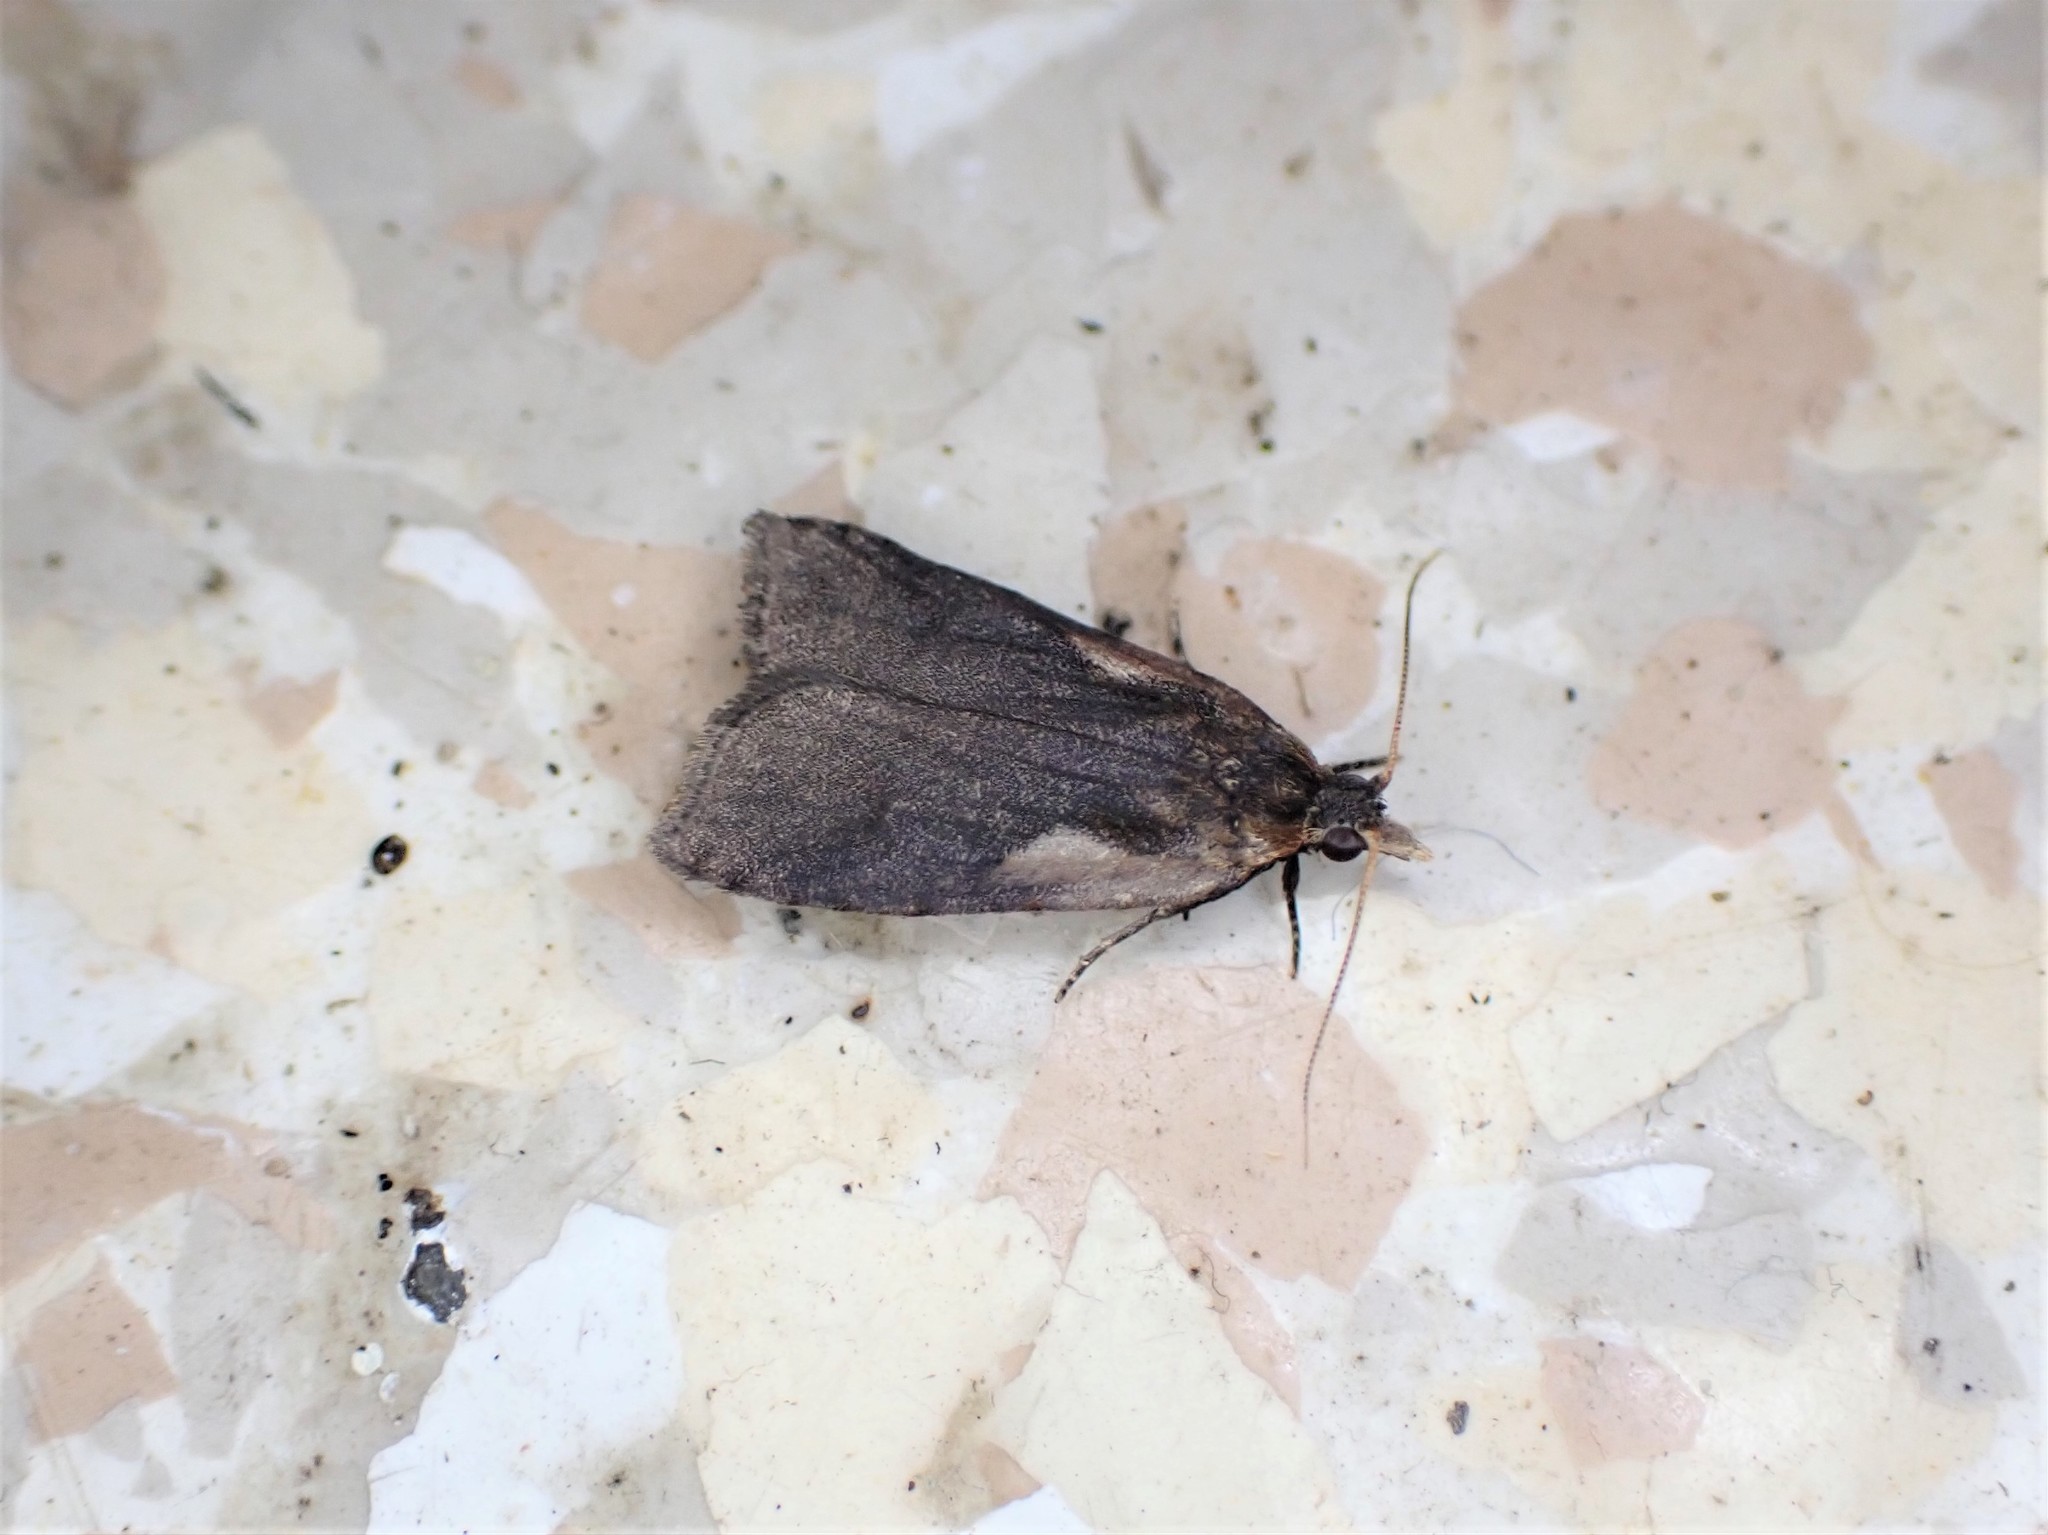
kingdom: Animalia
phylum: Arthropoda
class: Insecta
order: Lepidoptera
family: Tortricidae
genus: Cnephasia
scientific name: Cnephasia jactatana
